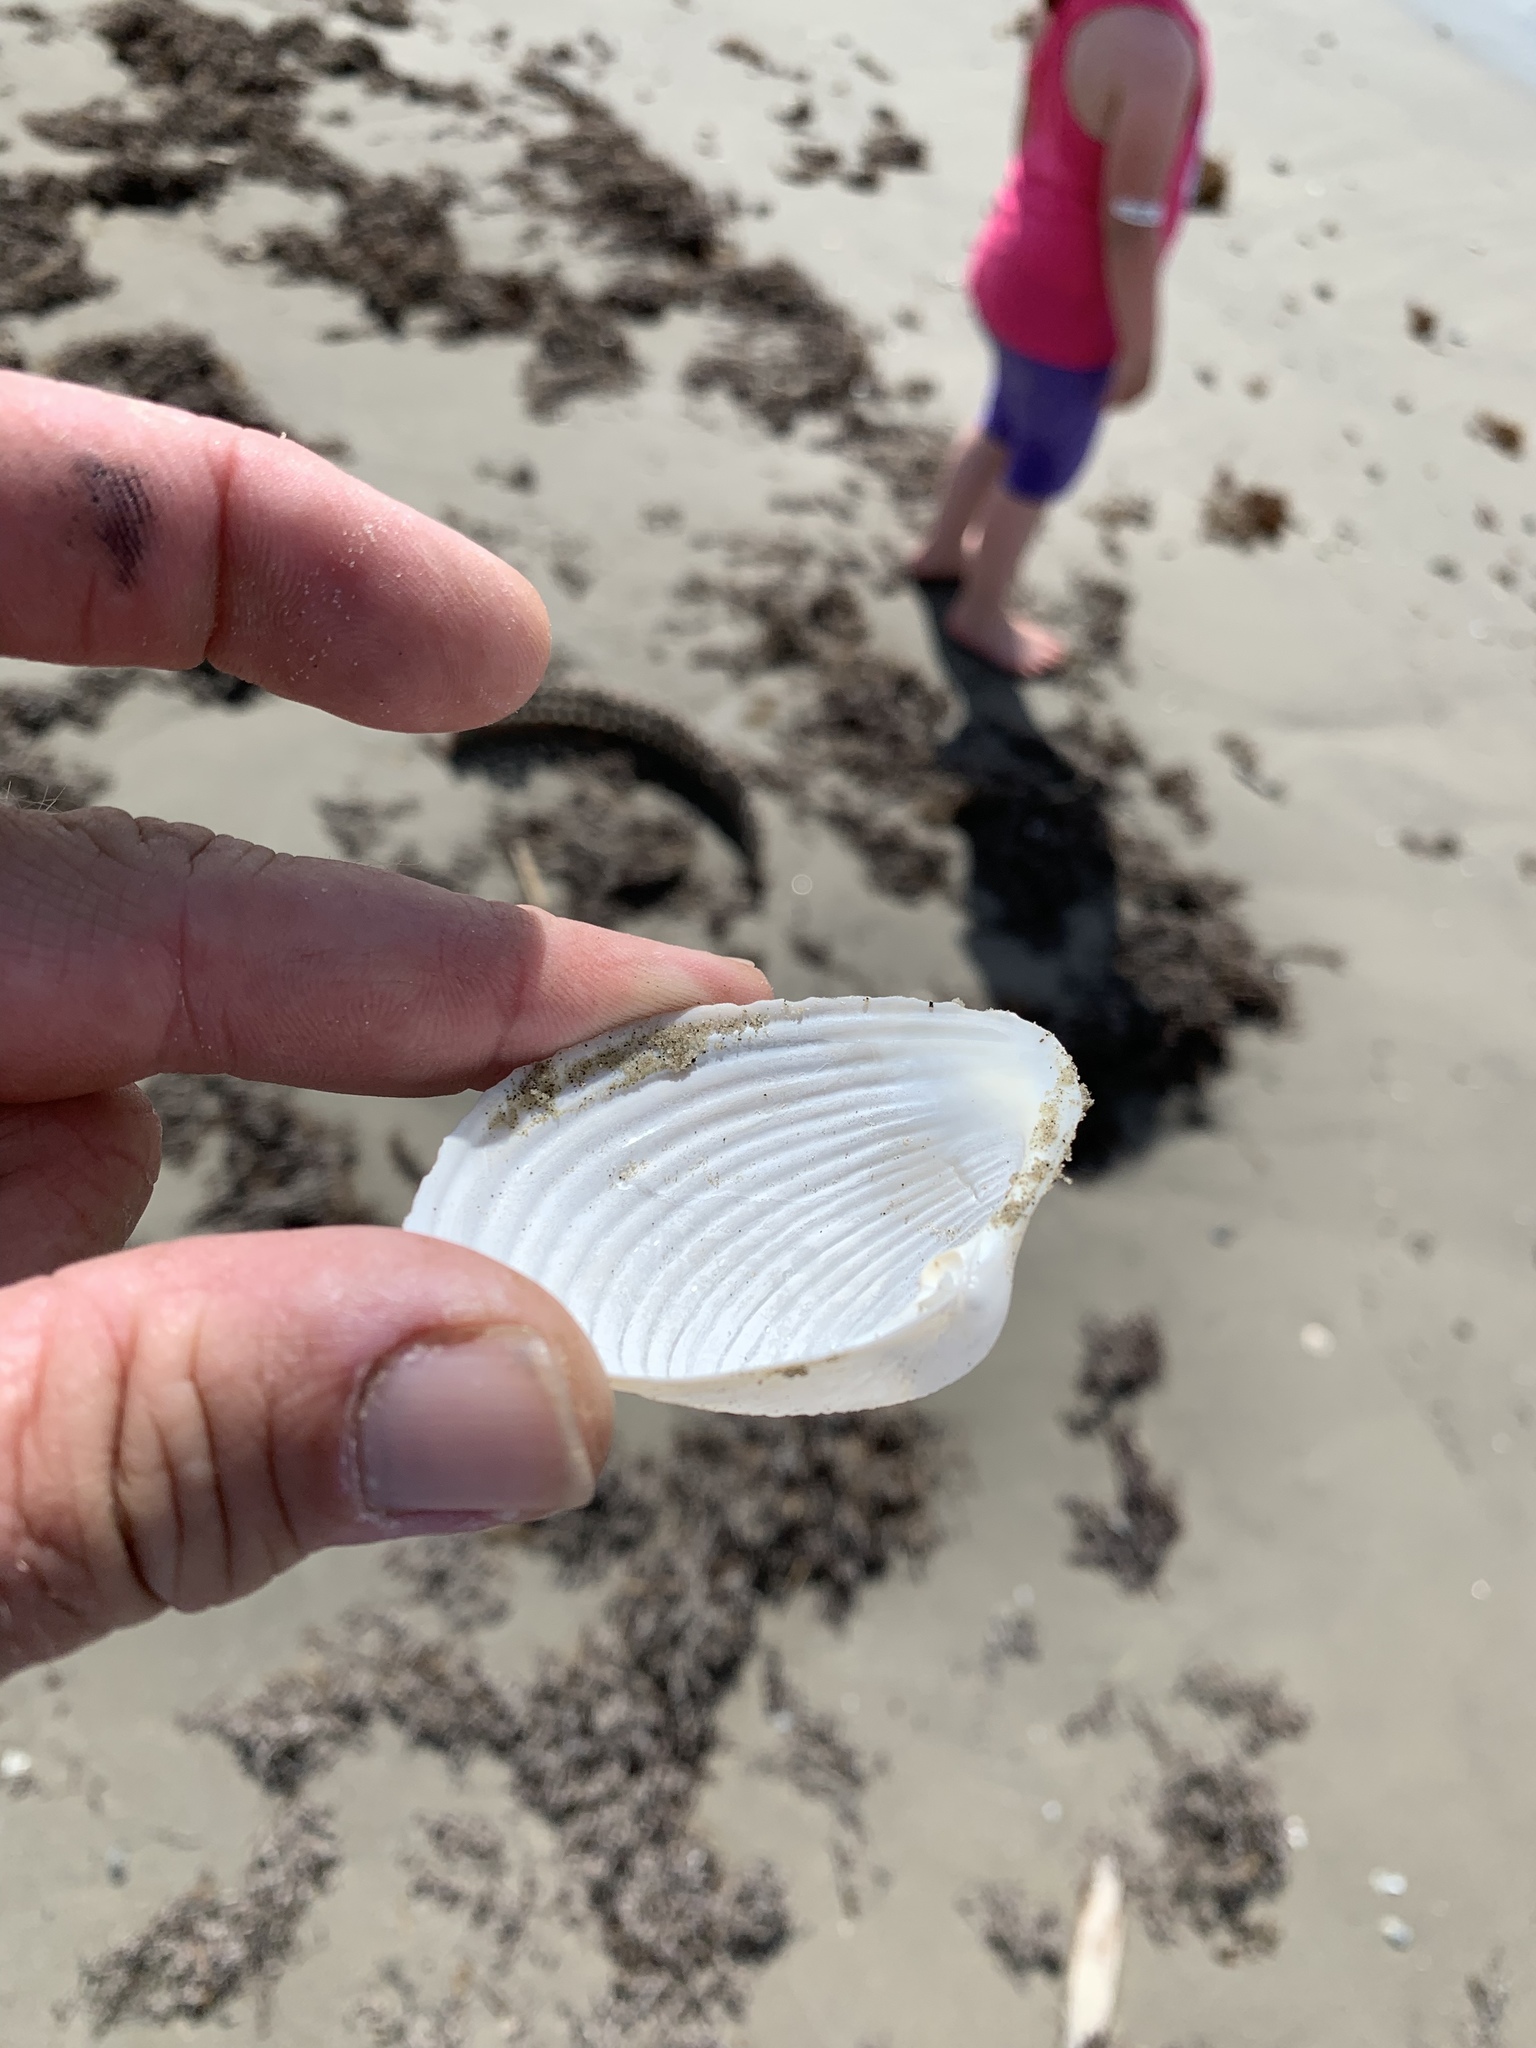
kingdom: Animalia
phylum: Mollusca
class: Bivalvia
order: Venerida
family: Anatinellidae
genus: Raeta
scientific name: Raeta plicatella
